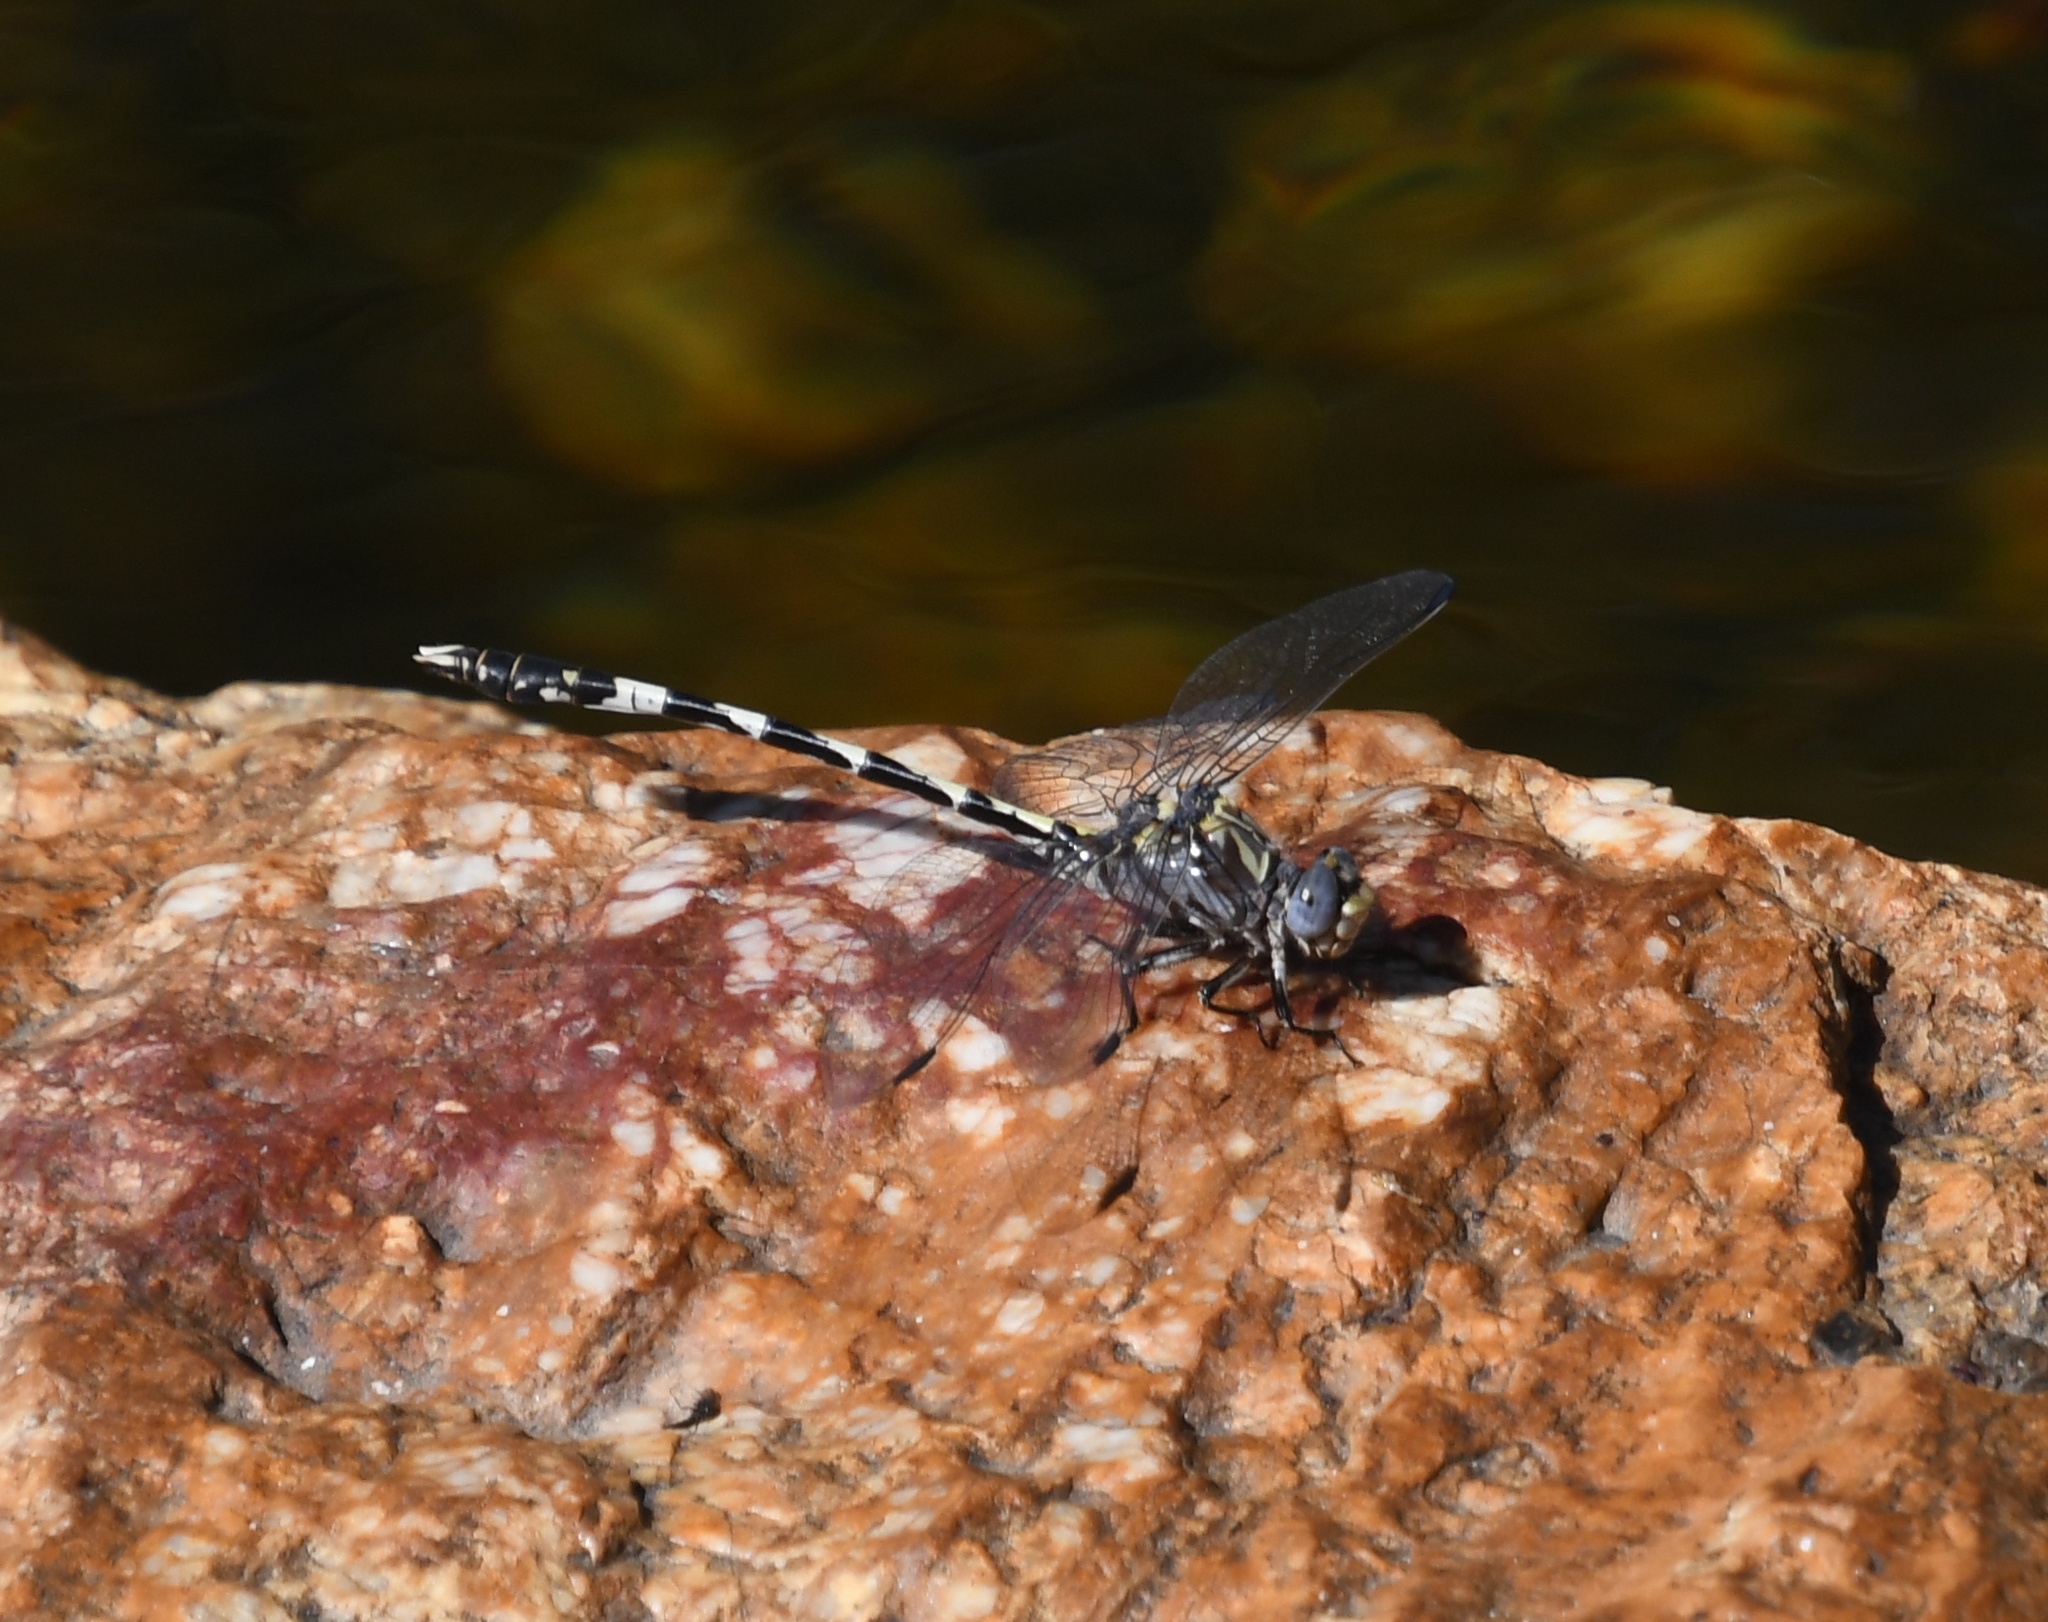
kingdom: Animalia
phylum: Arthropoda
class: Insecta
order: Odonata
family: Gomphidae
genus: Progomphus
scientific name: Progomphus borealis
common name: Gray sanddragon
